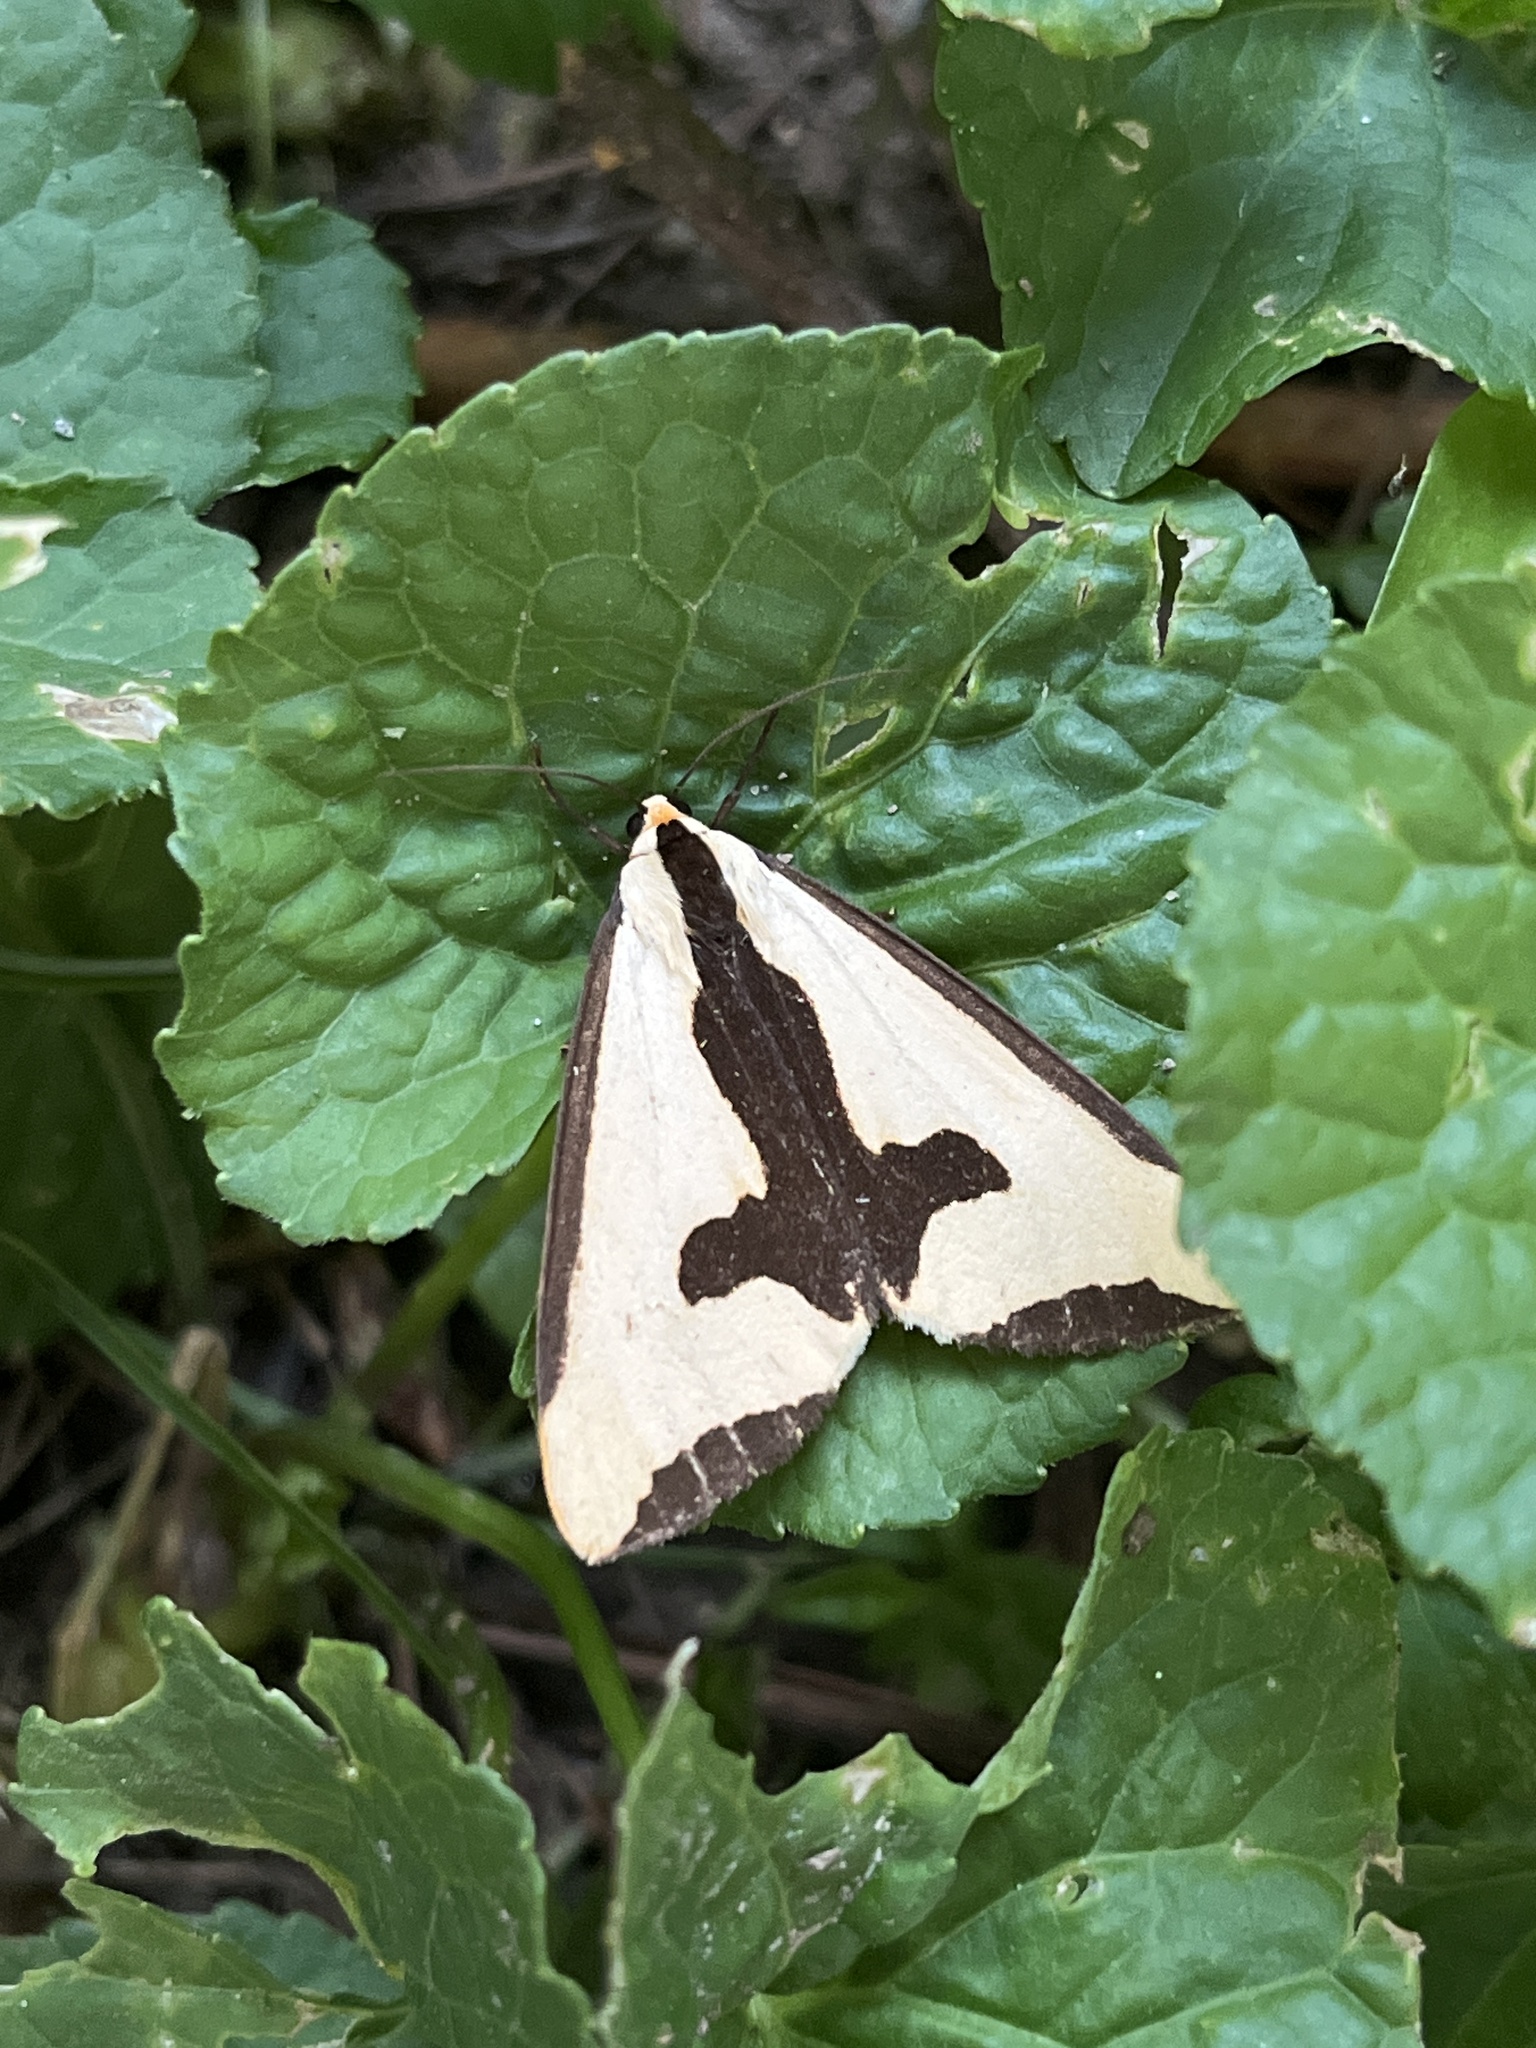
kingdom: Animalia
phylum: Arthropoda
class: Insecta
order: Lepidoptera
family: Erebidae
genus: Haploa
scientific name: Haploa clymene
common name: Clymene moth
